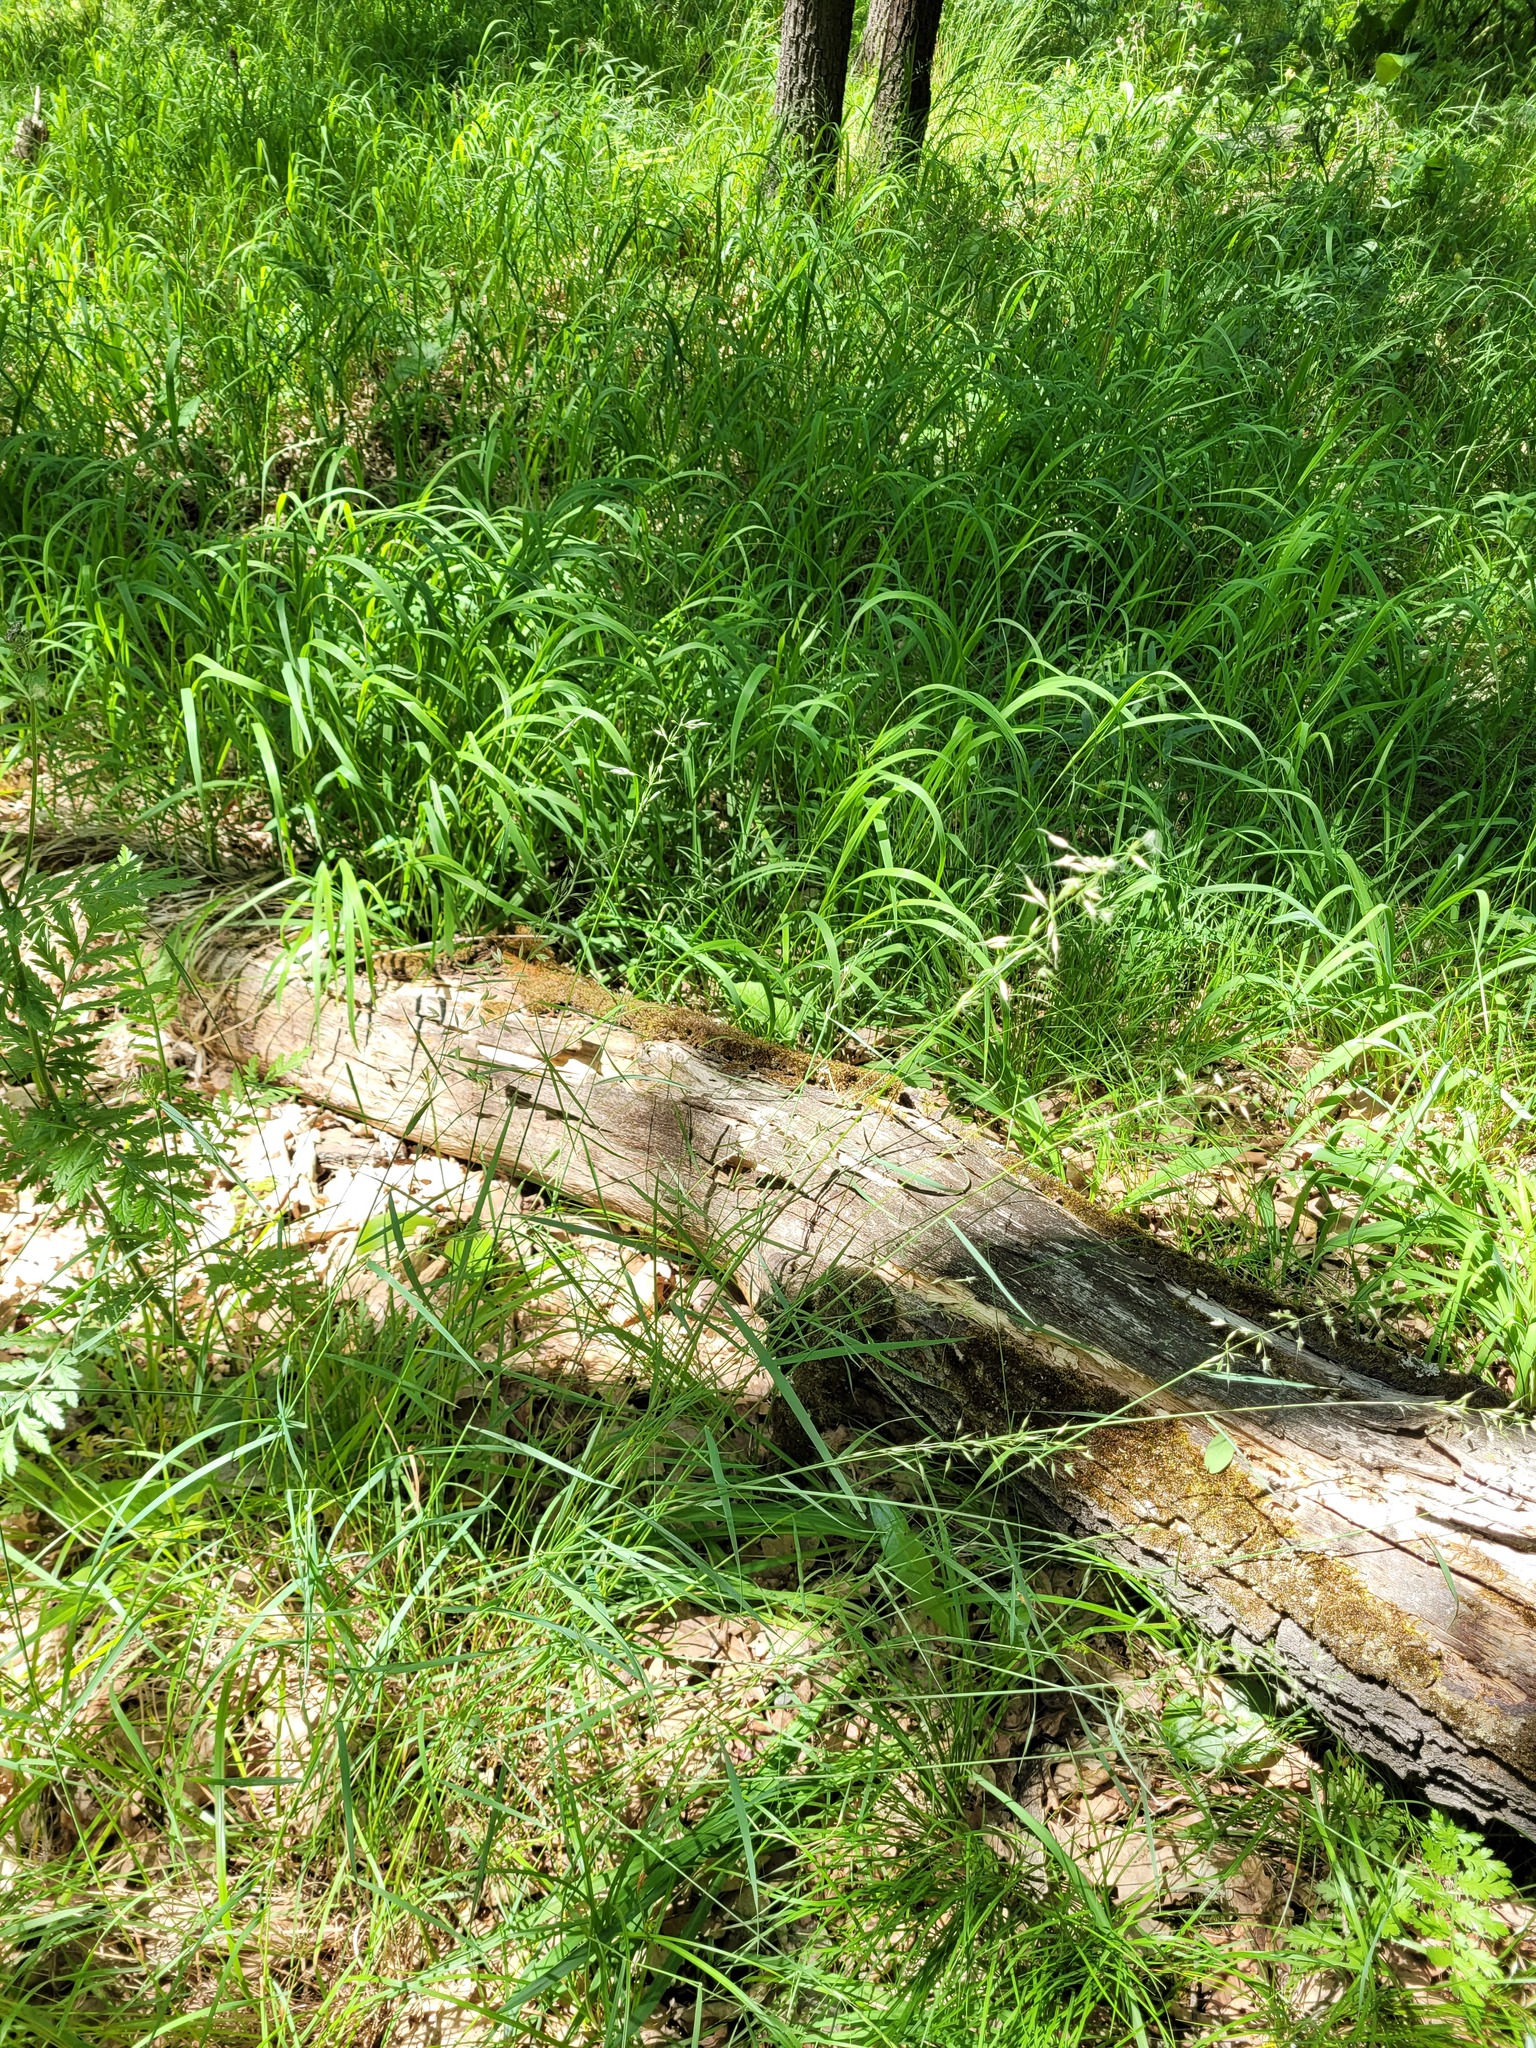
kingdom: Plantae
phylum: Tracheophyta
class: Liliopsida
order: Poales
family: Poaceae
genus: Arrhenatherum
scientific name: Arrhenatherum elatius
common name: Tall oatgrass
